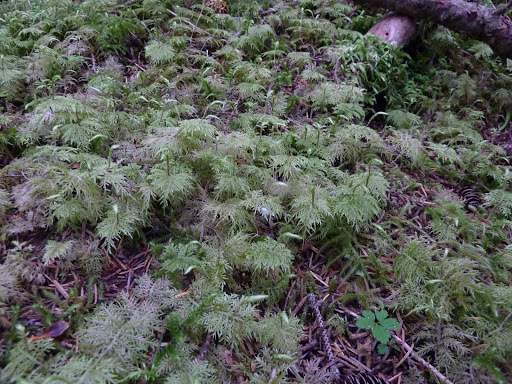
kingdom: Plantae
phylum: Bryophyta
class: Bryopsida
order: Hypnales
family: Hylocomiaceae
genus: Hylocomium
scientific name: Hylocomium splendens
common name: Stairstep moss
